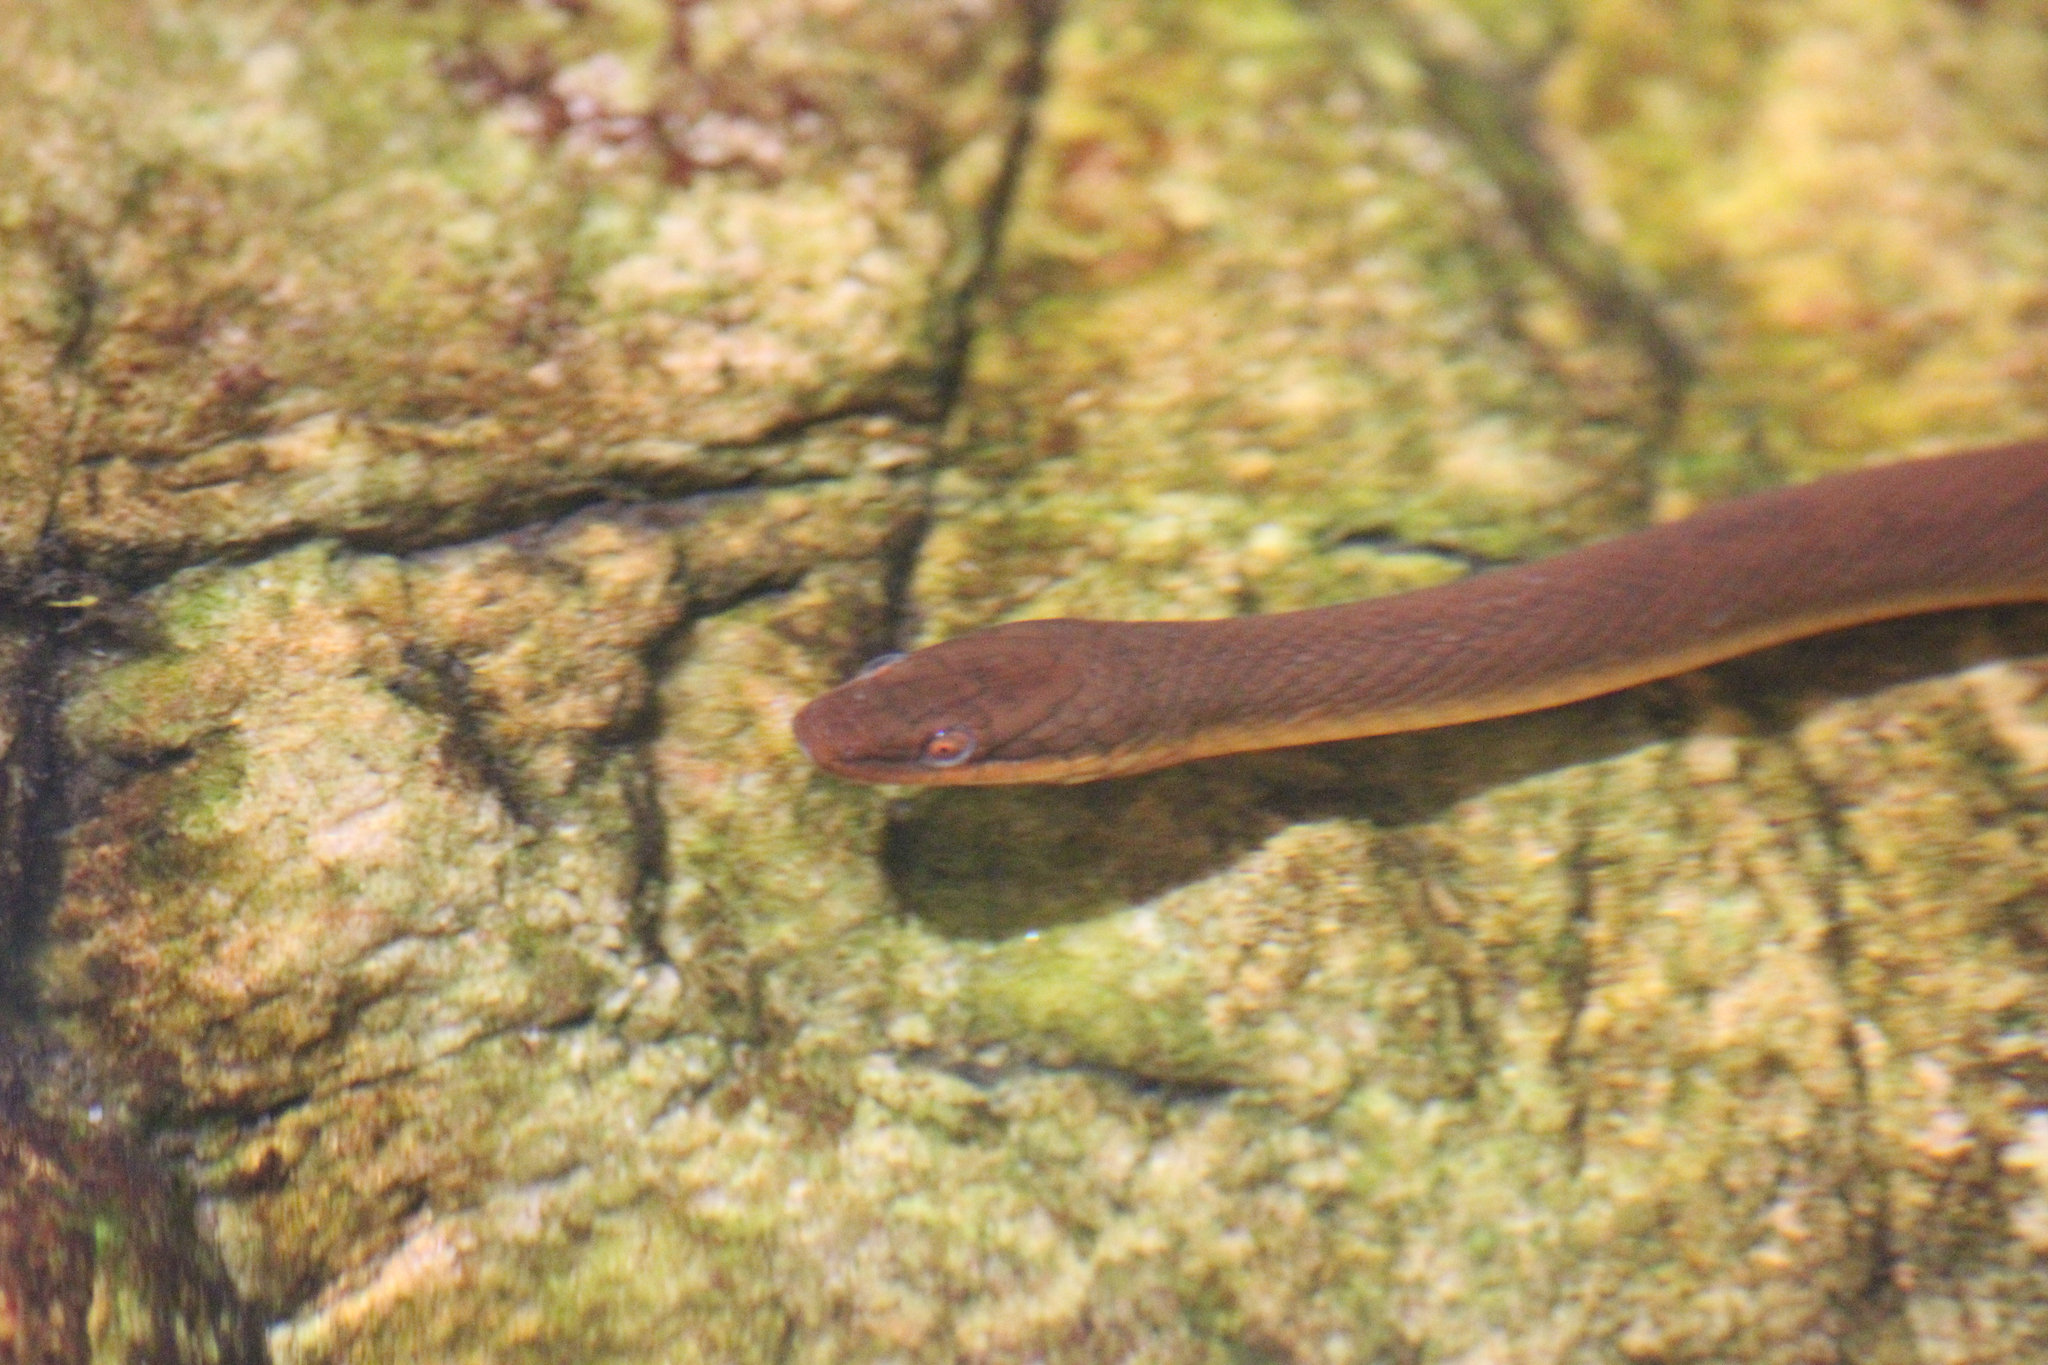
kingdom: Animalia
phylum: Chordata
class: Squamata
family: Lamprophiidae
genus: Lycodonomorphus
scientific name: Lycodonomorphus rufulus
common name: Brown water snake
